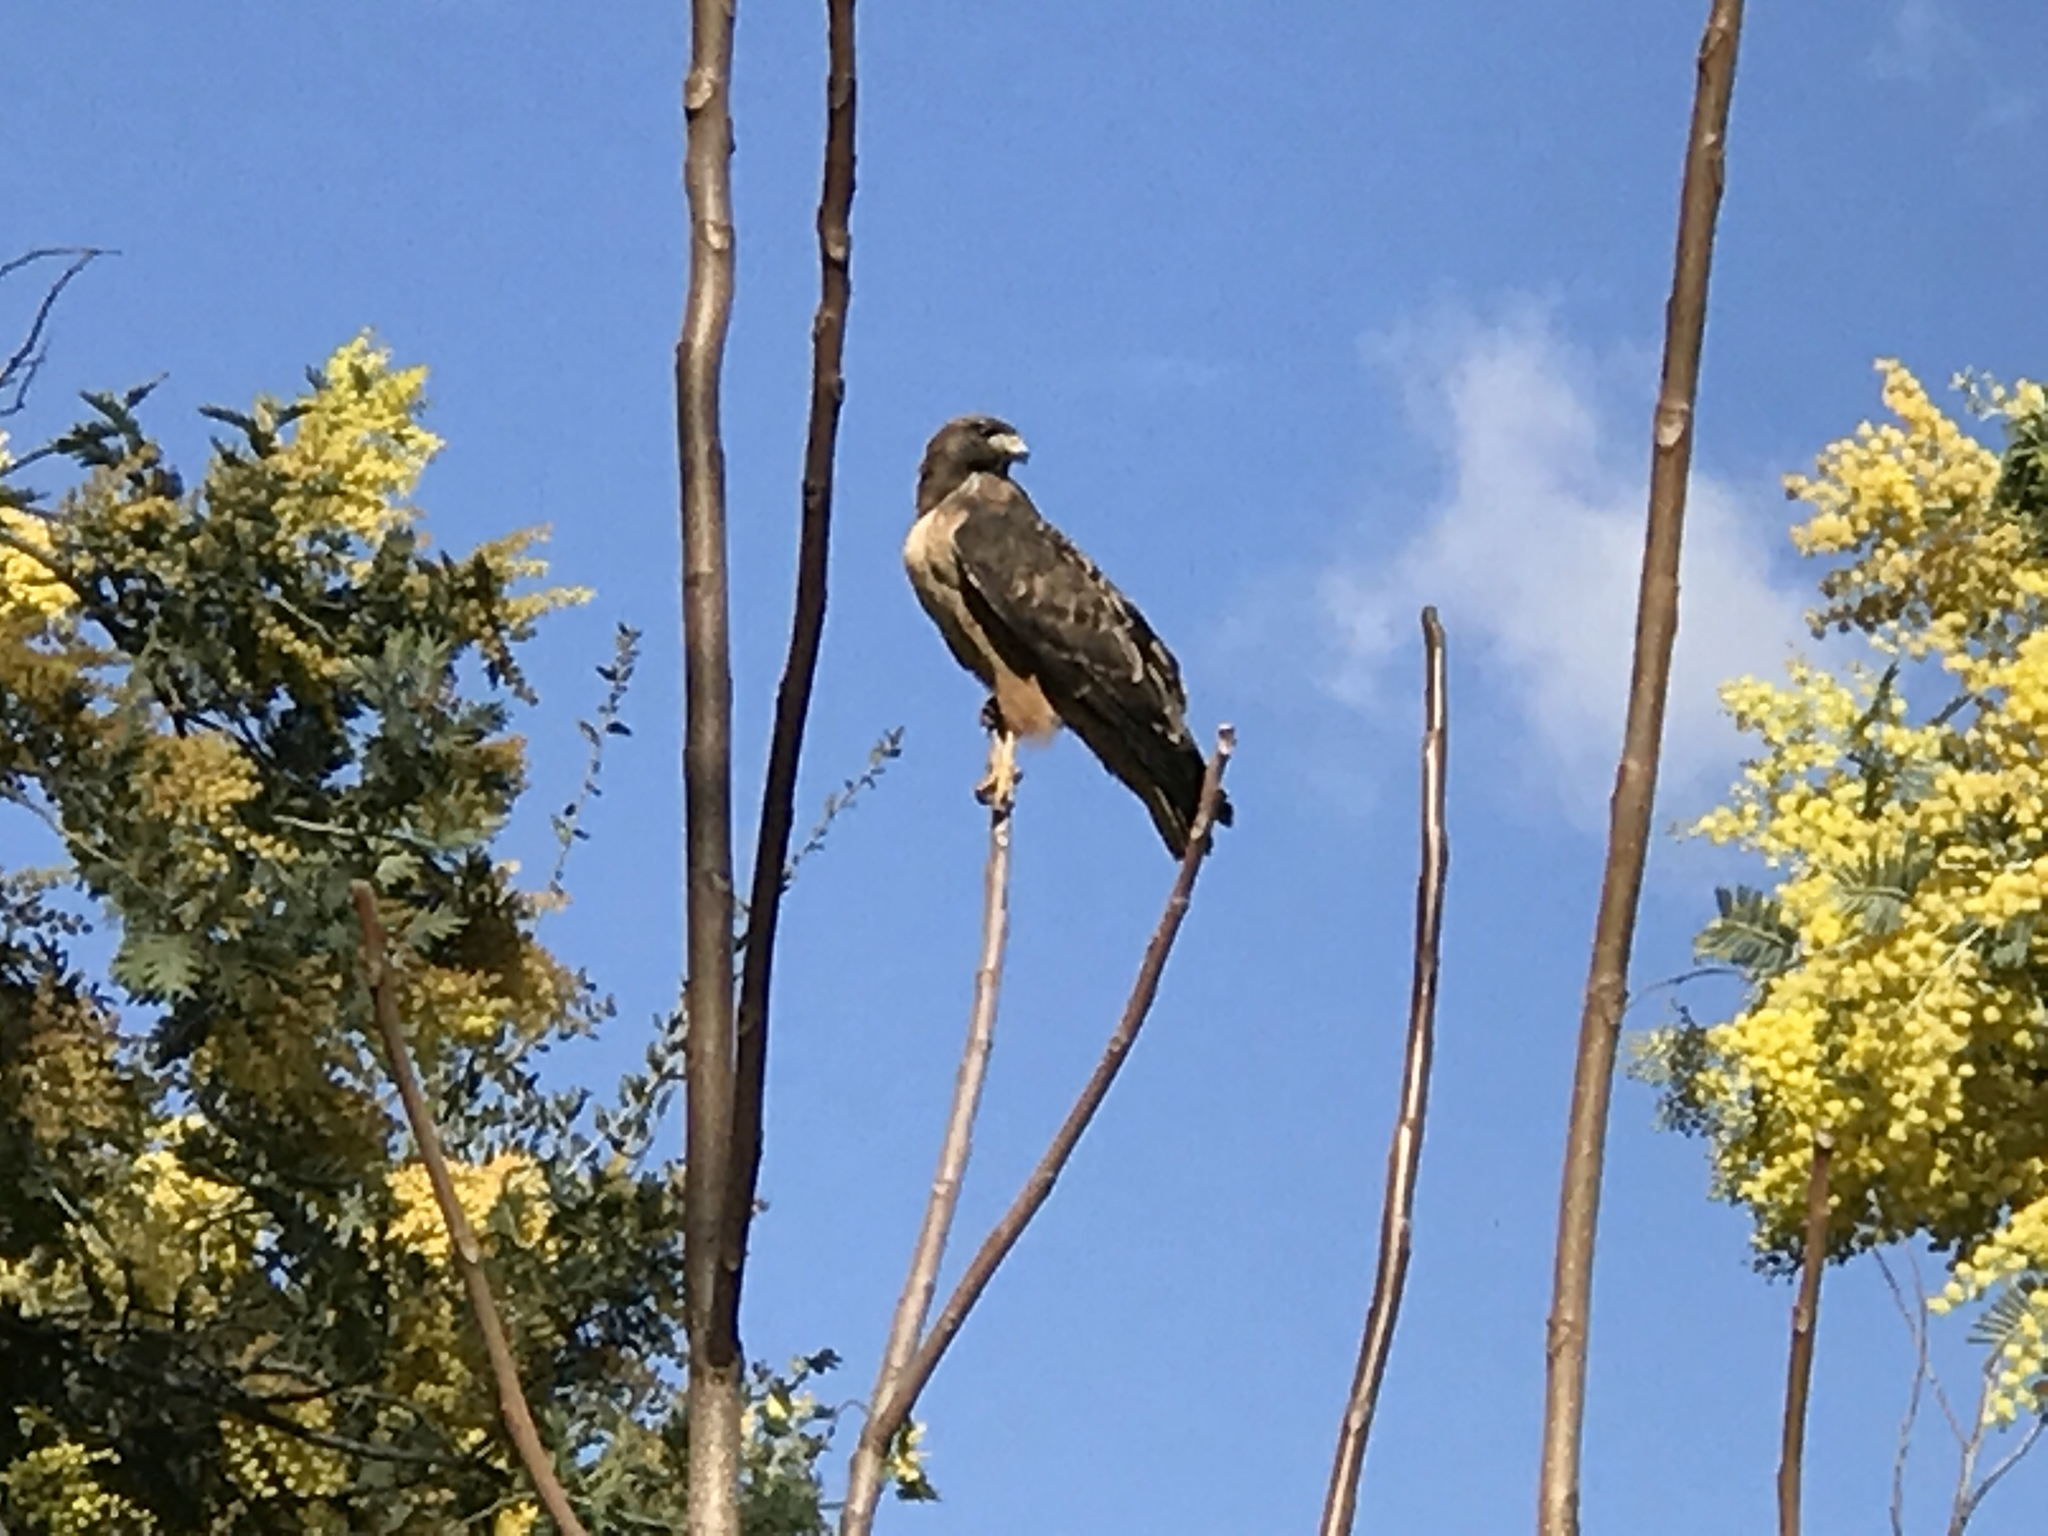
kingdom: Animalia
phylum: Chordata
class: Aves
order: Accipitriformes
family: Accipitridae
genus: Buteo
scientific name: Buteo jamaicensis
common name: Red-tailed hawk
